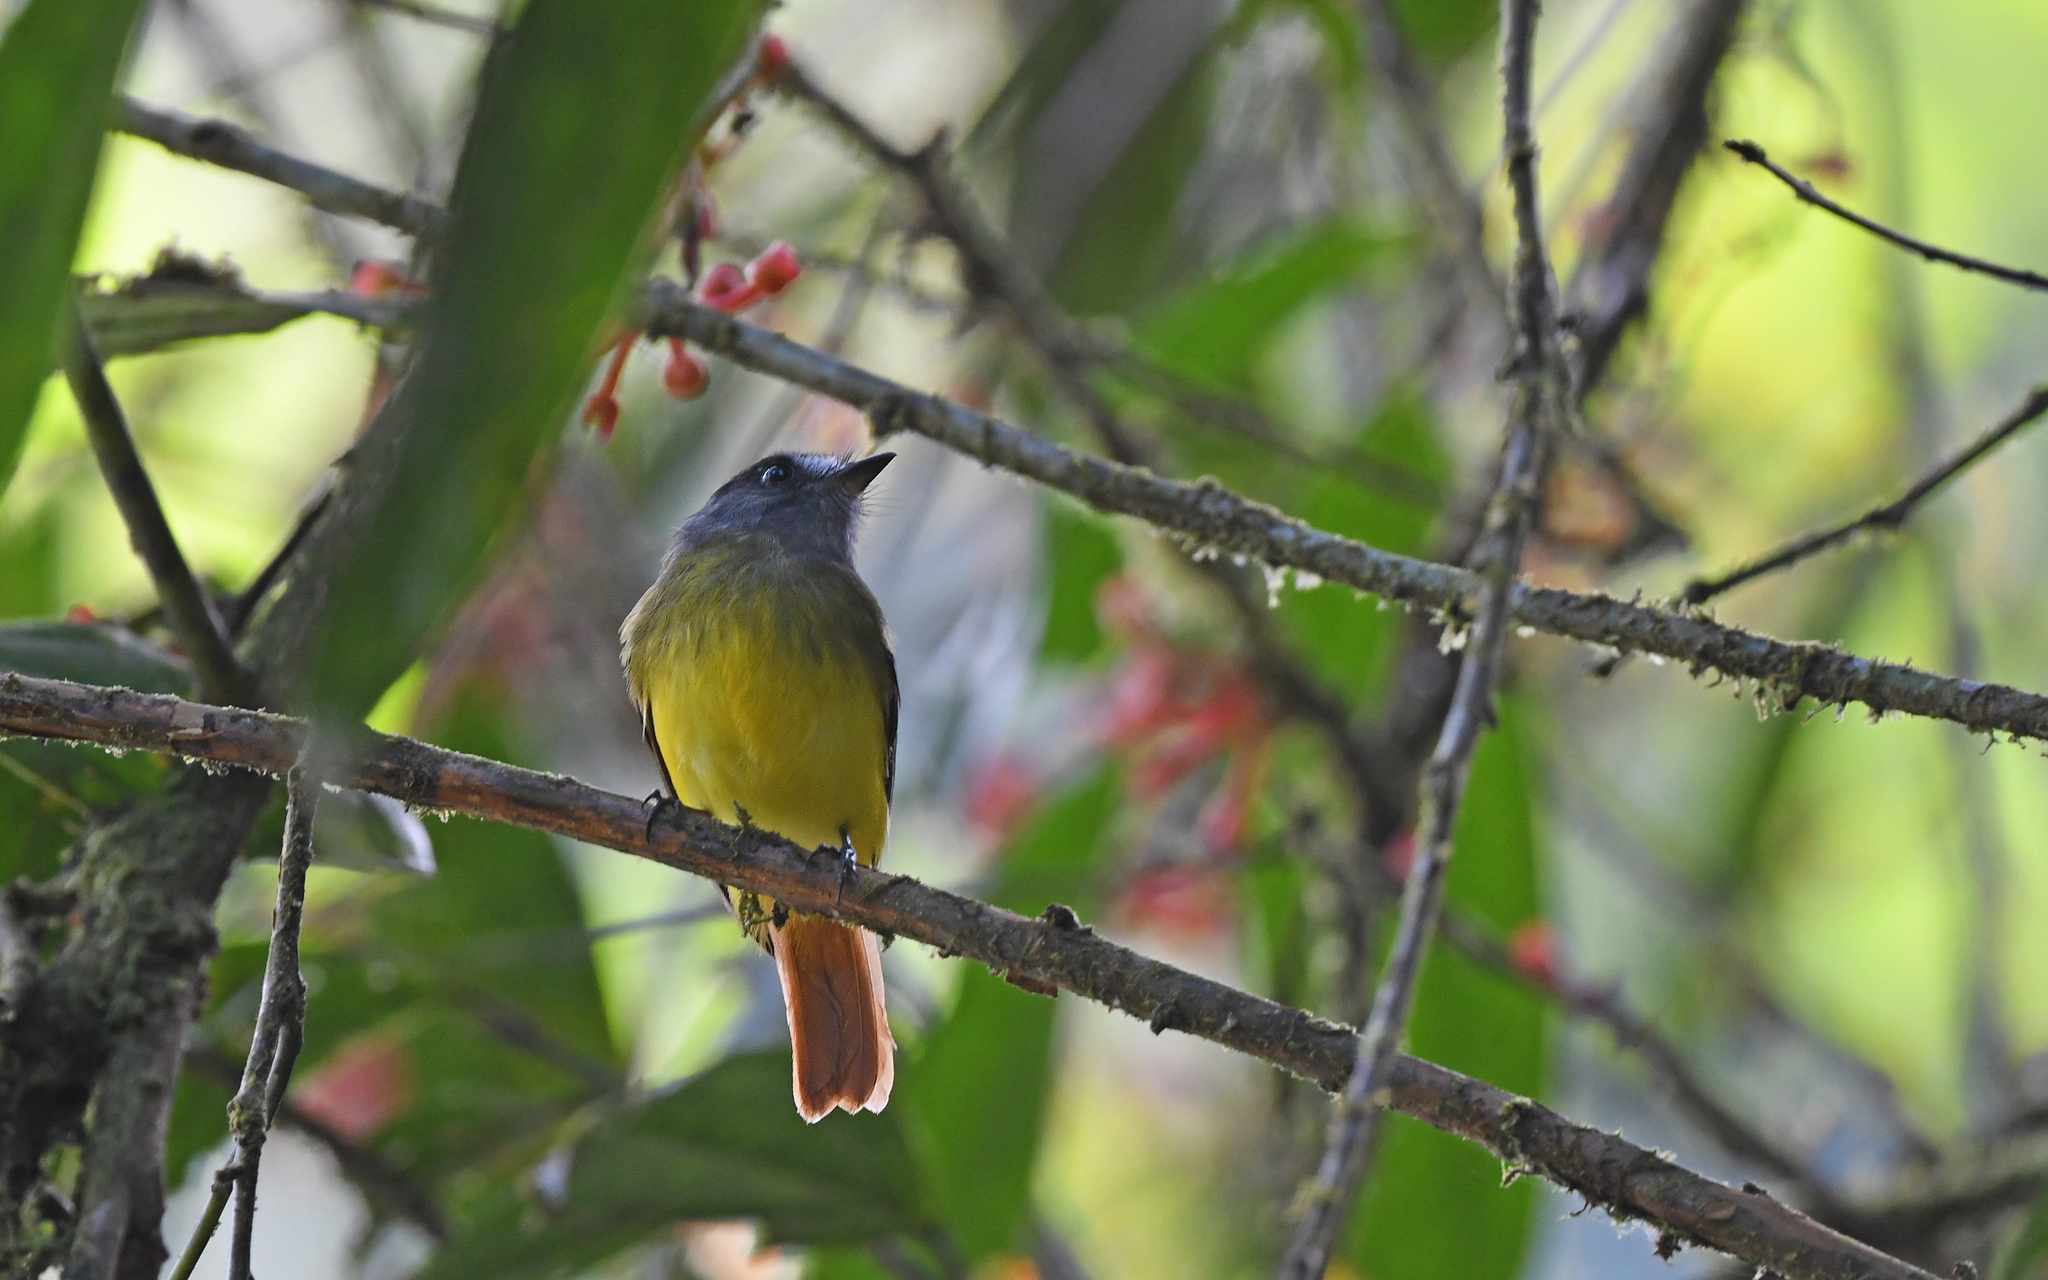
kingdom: Animalia
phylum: Chordata
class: Aves
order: Passeriformes
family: Tyrannidae
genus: Myiotriccus
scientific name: Myiotriccus ornatus
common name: Ornate flycatcher
